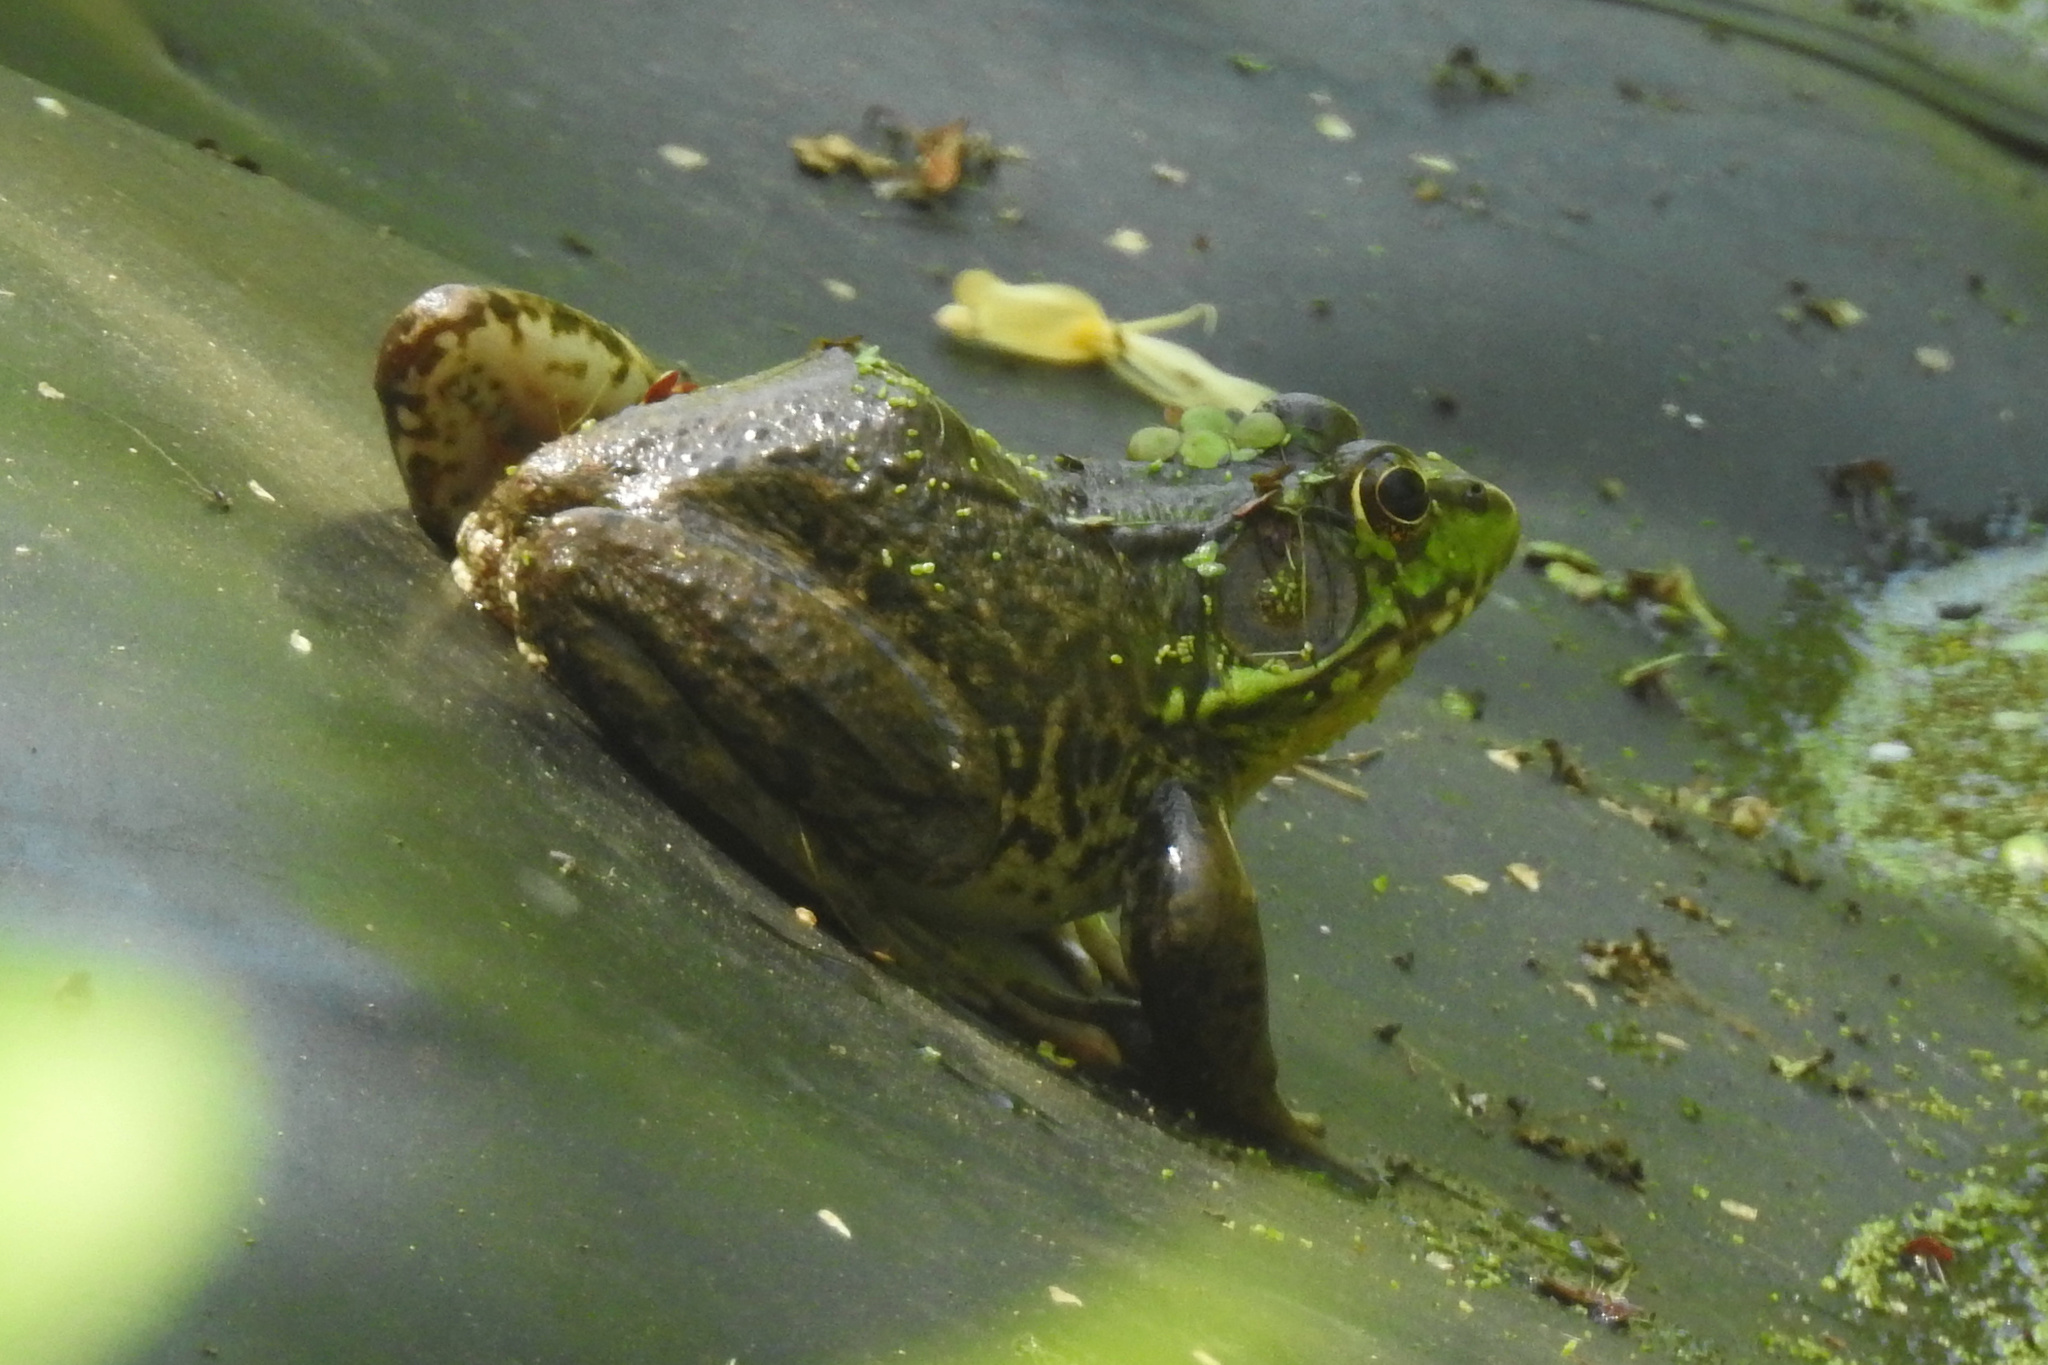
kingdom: Animalia
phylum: Chordata
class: Amphibia
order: Anura
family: Ranidae
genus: Lithobates
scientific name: Lithobates clamitans
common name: Green frog
